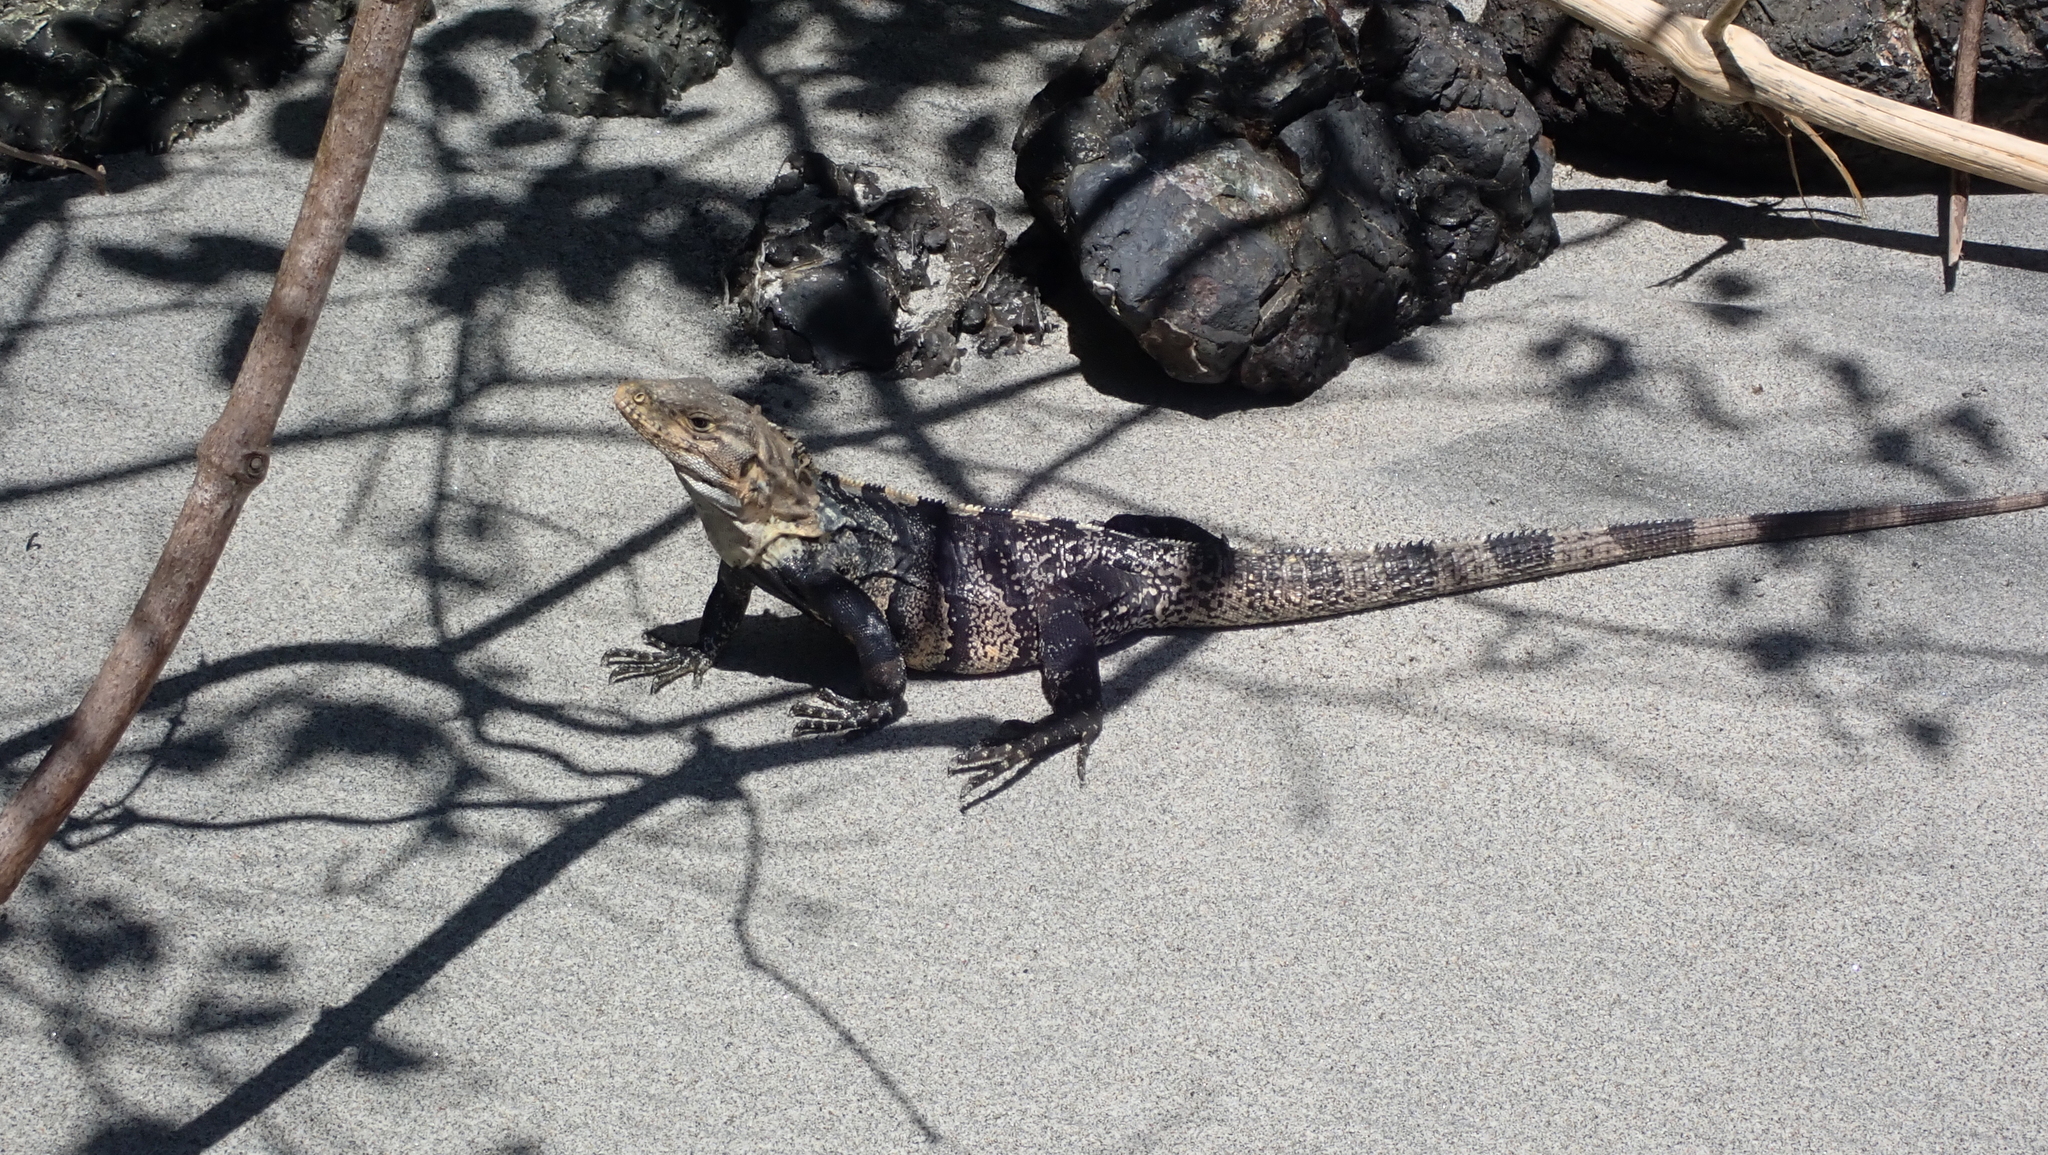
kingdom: Animalia
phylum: Chordata
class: Squamata
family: Iguanidae
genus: Ctenosaura
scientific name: Ctenosaura similis
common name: Black spiny-tailed iguana
